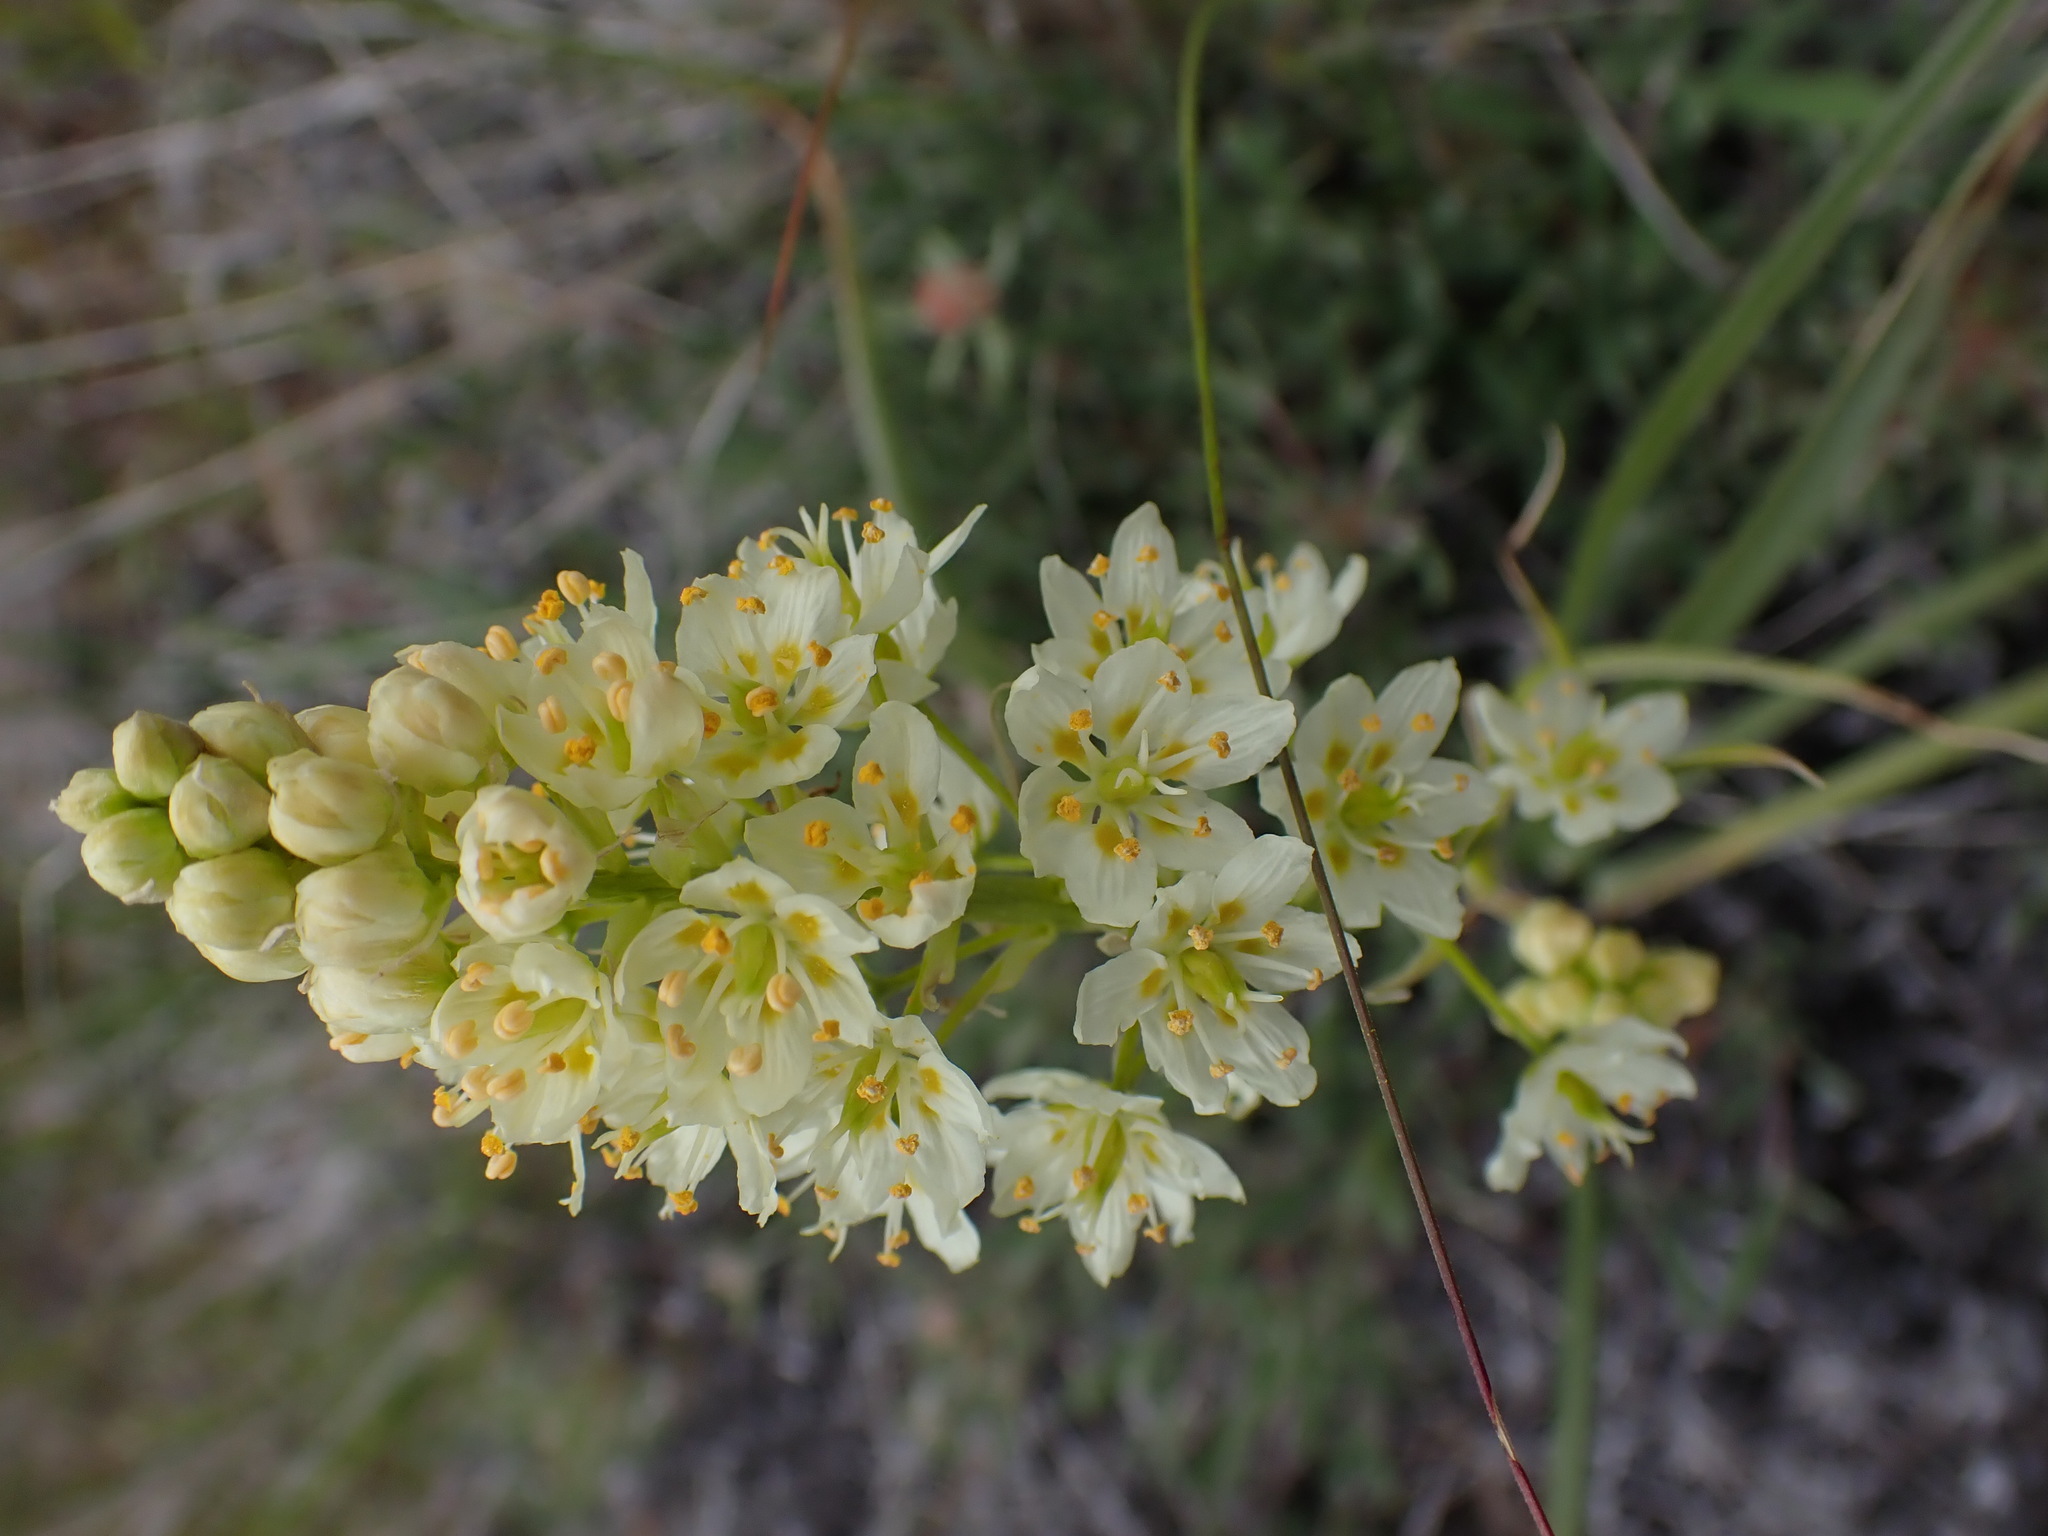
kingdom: Plantae
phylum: Tracheophyta
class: Liliopsida
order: Liliales
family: Melanthiaceae
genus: Toxicoscordion
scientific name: Toxicoscordion venenosum
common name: Meadow death camas
